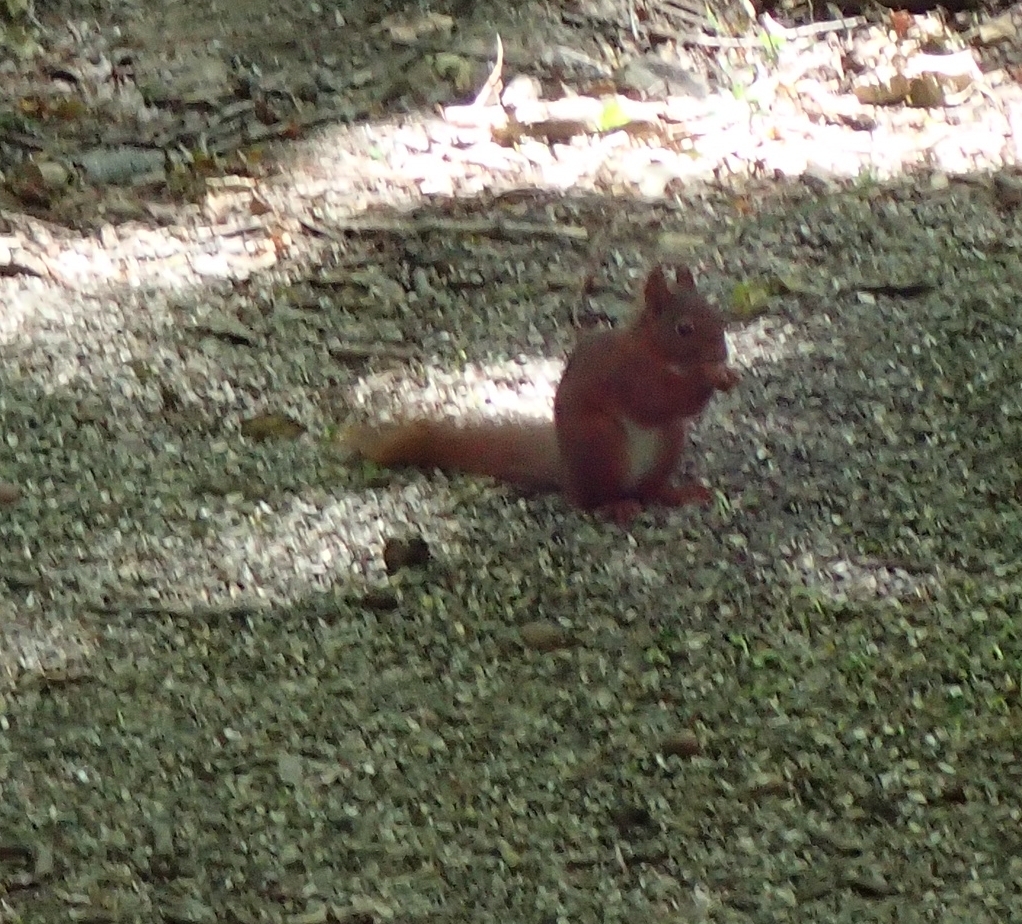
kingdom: Animalia
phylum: Chordata
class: Mammalia
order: Rodentia
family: Sciuridae
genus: Sciurus
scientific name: Sciurus vulgaris
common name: Eurasian red squirrel
